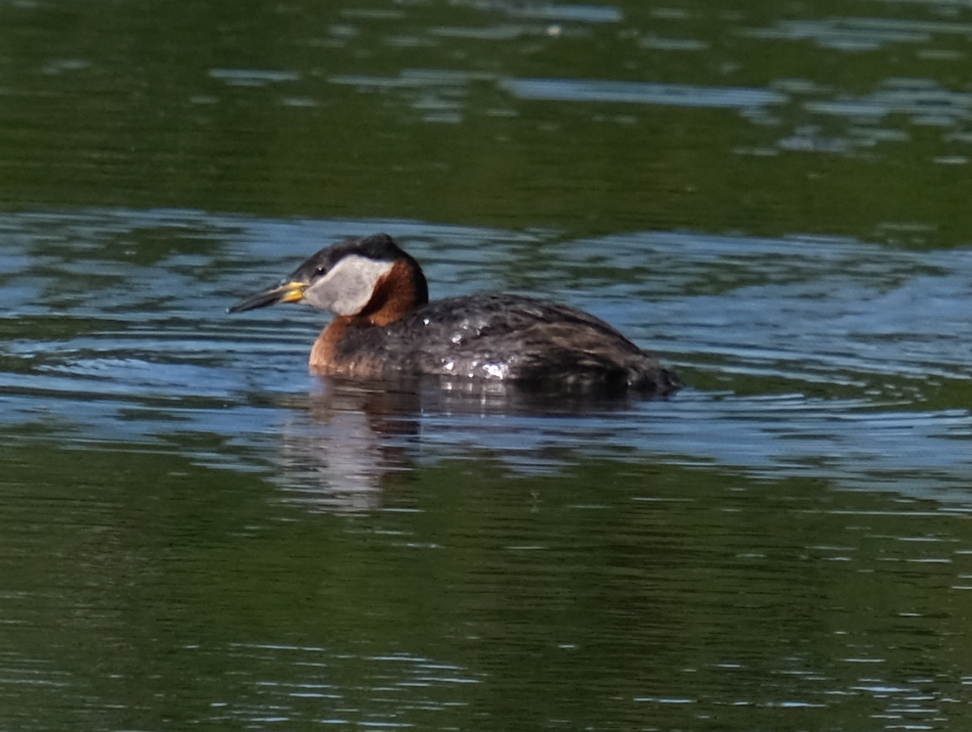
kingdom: Animalia
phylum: Chordata
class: Aves
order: Podicipediformes
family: Podicipedidae
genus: Podiceps
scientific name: Podiceps grisegena
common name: Red-necked grebe
